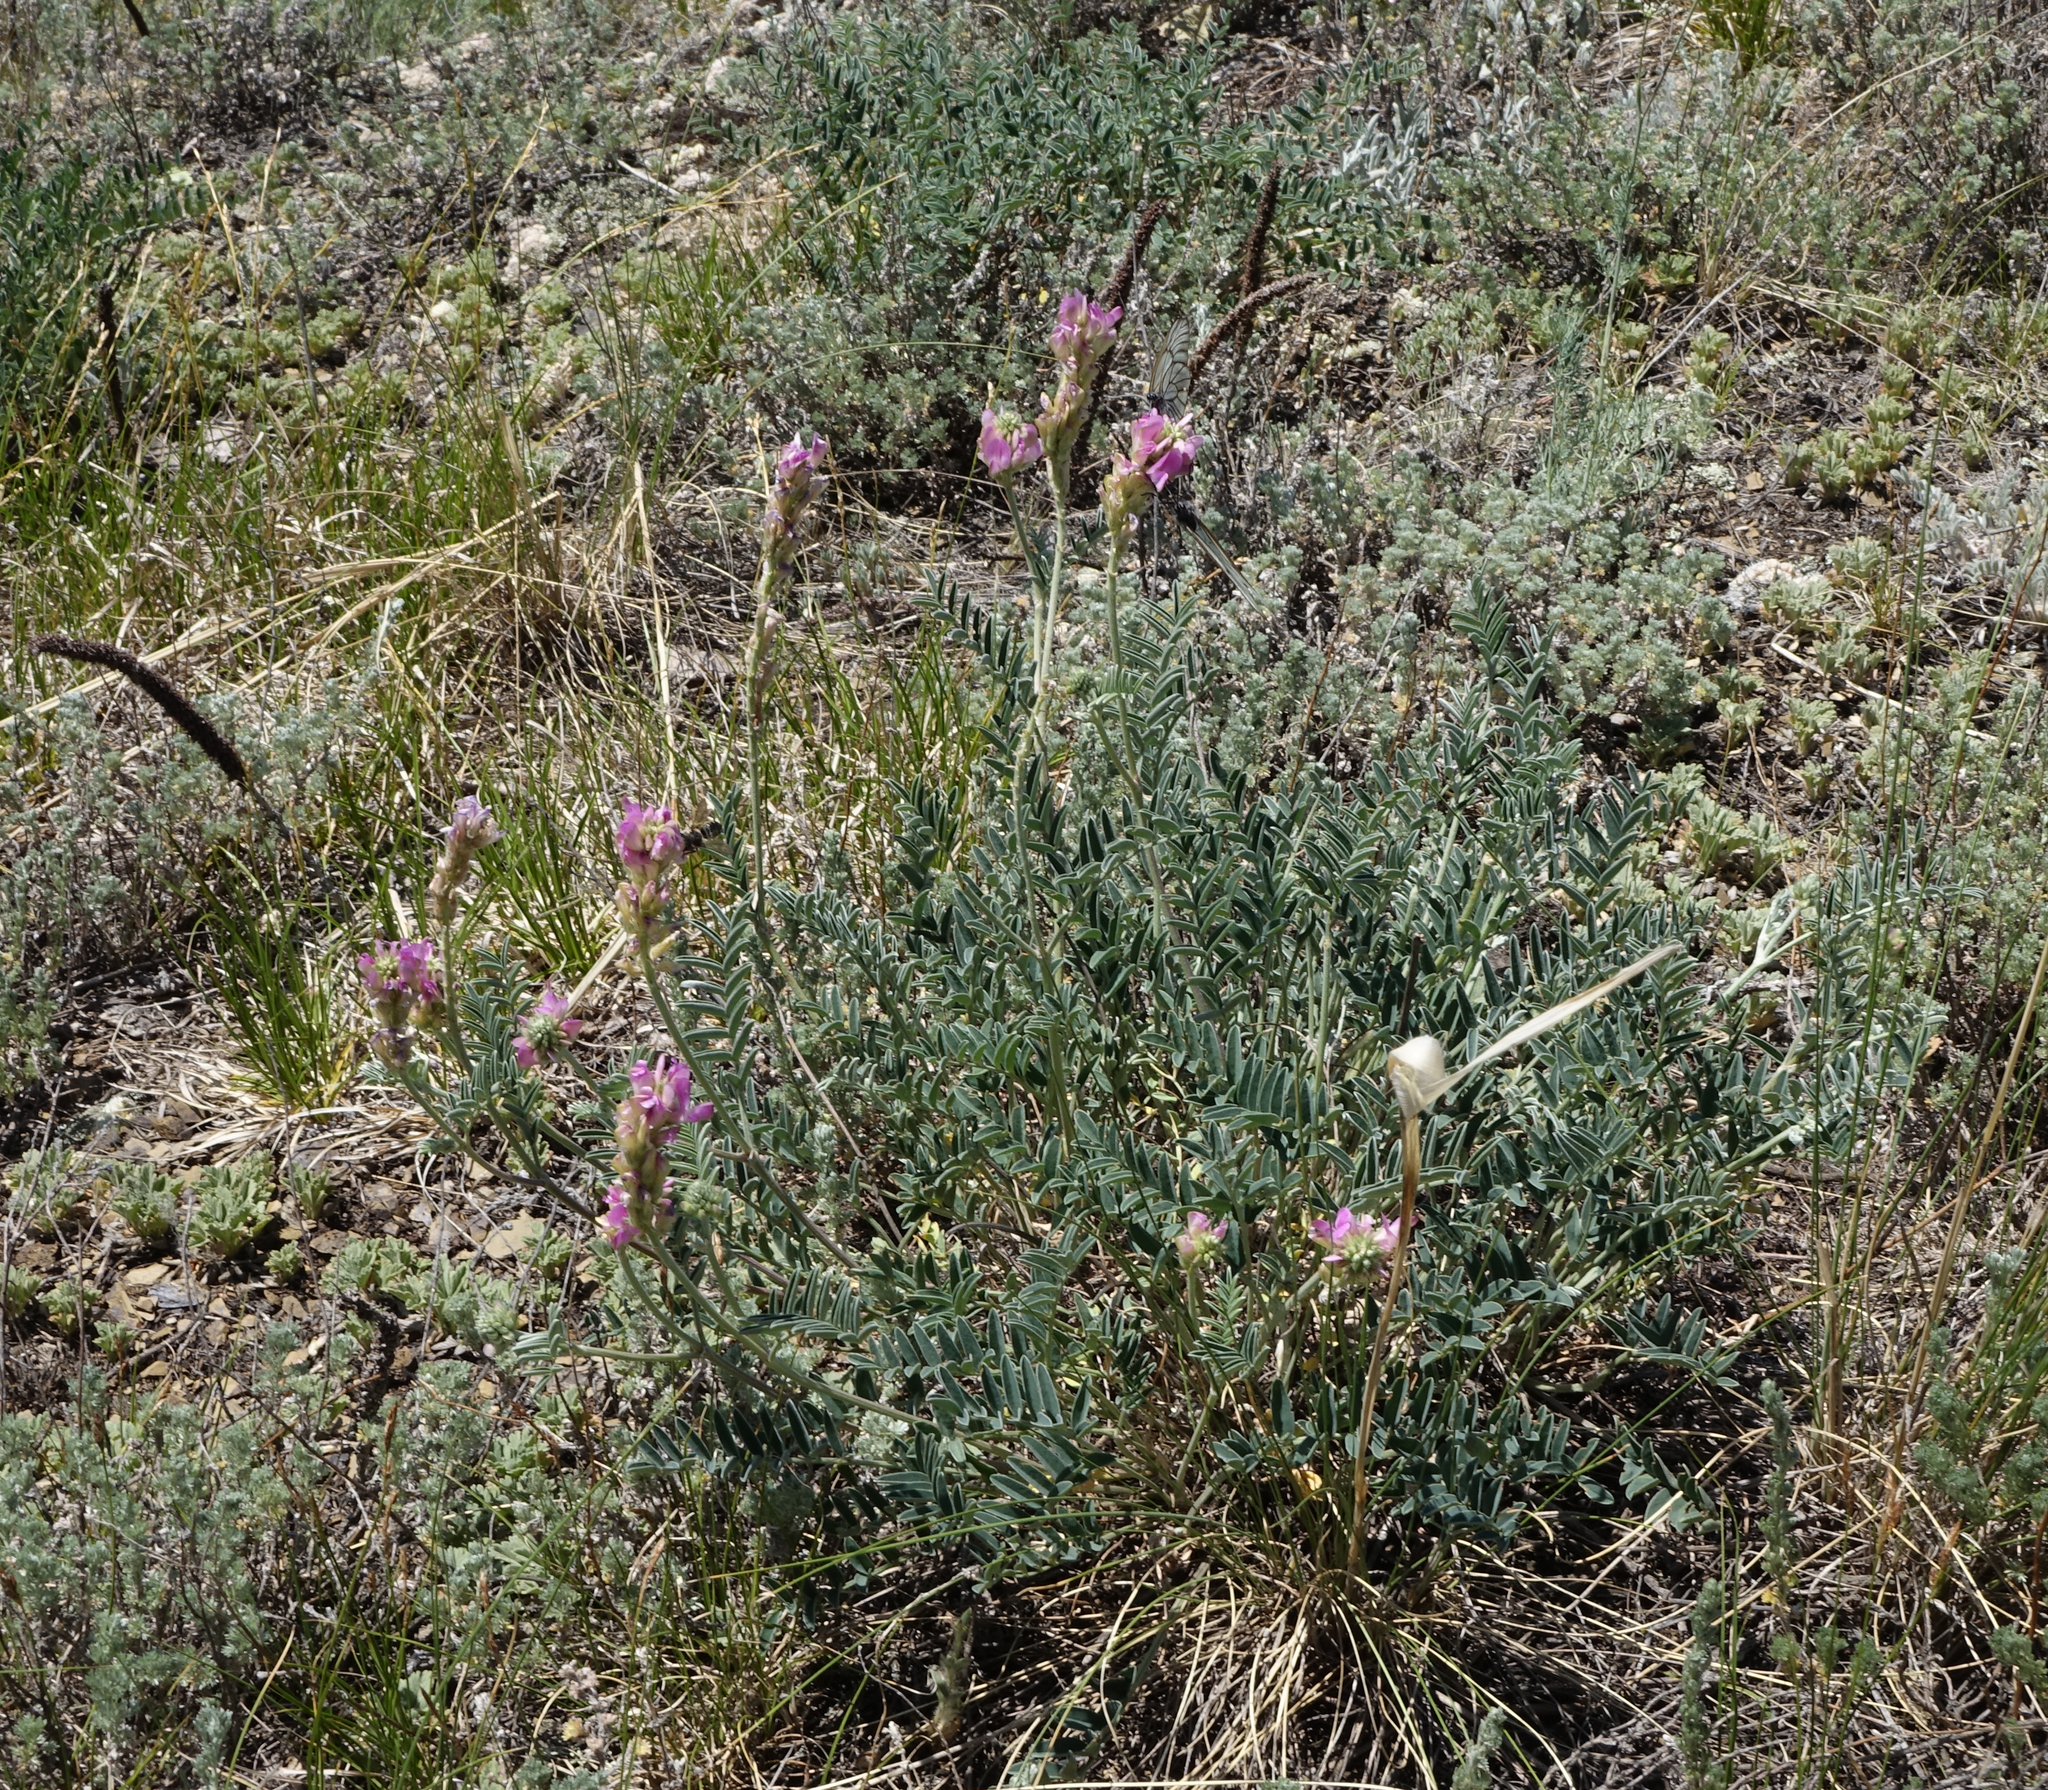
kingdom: Plantae
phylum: Tracheophyta
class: Magnoliopsida
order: Fabales
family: Fabaceae
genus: Hedysarum
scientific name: Hedysarum gmelinii
